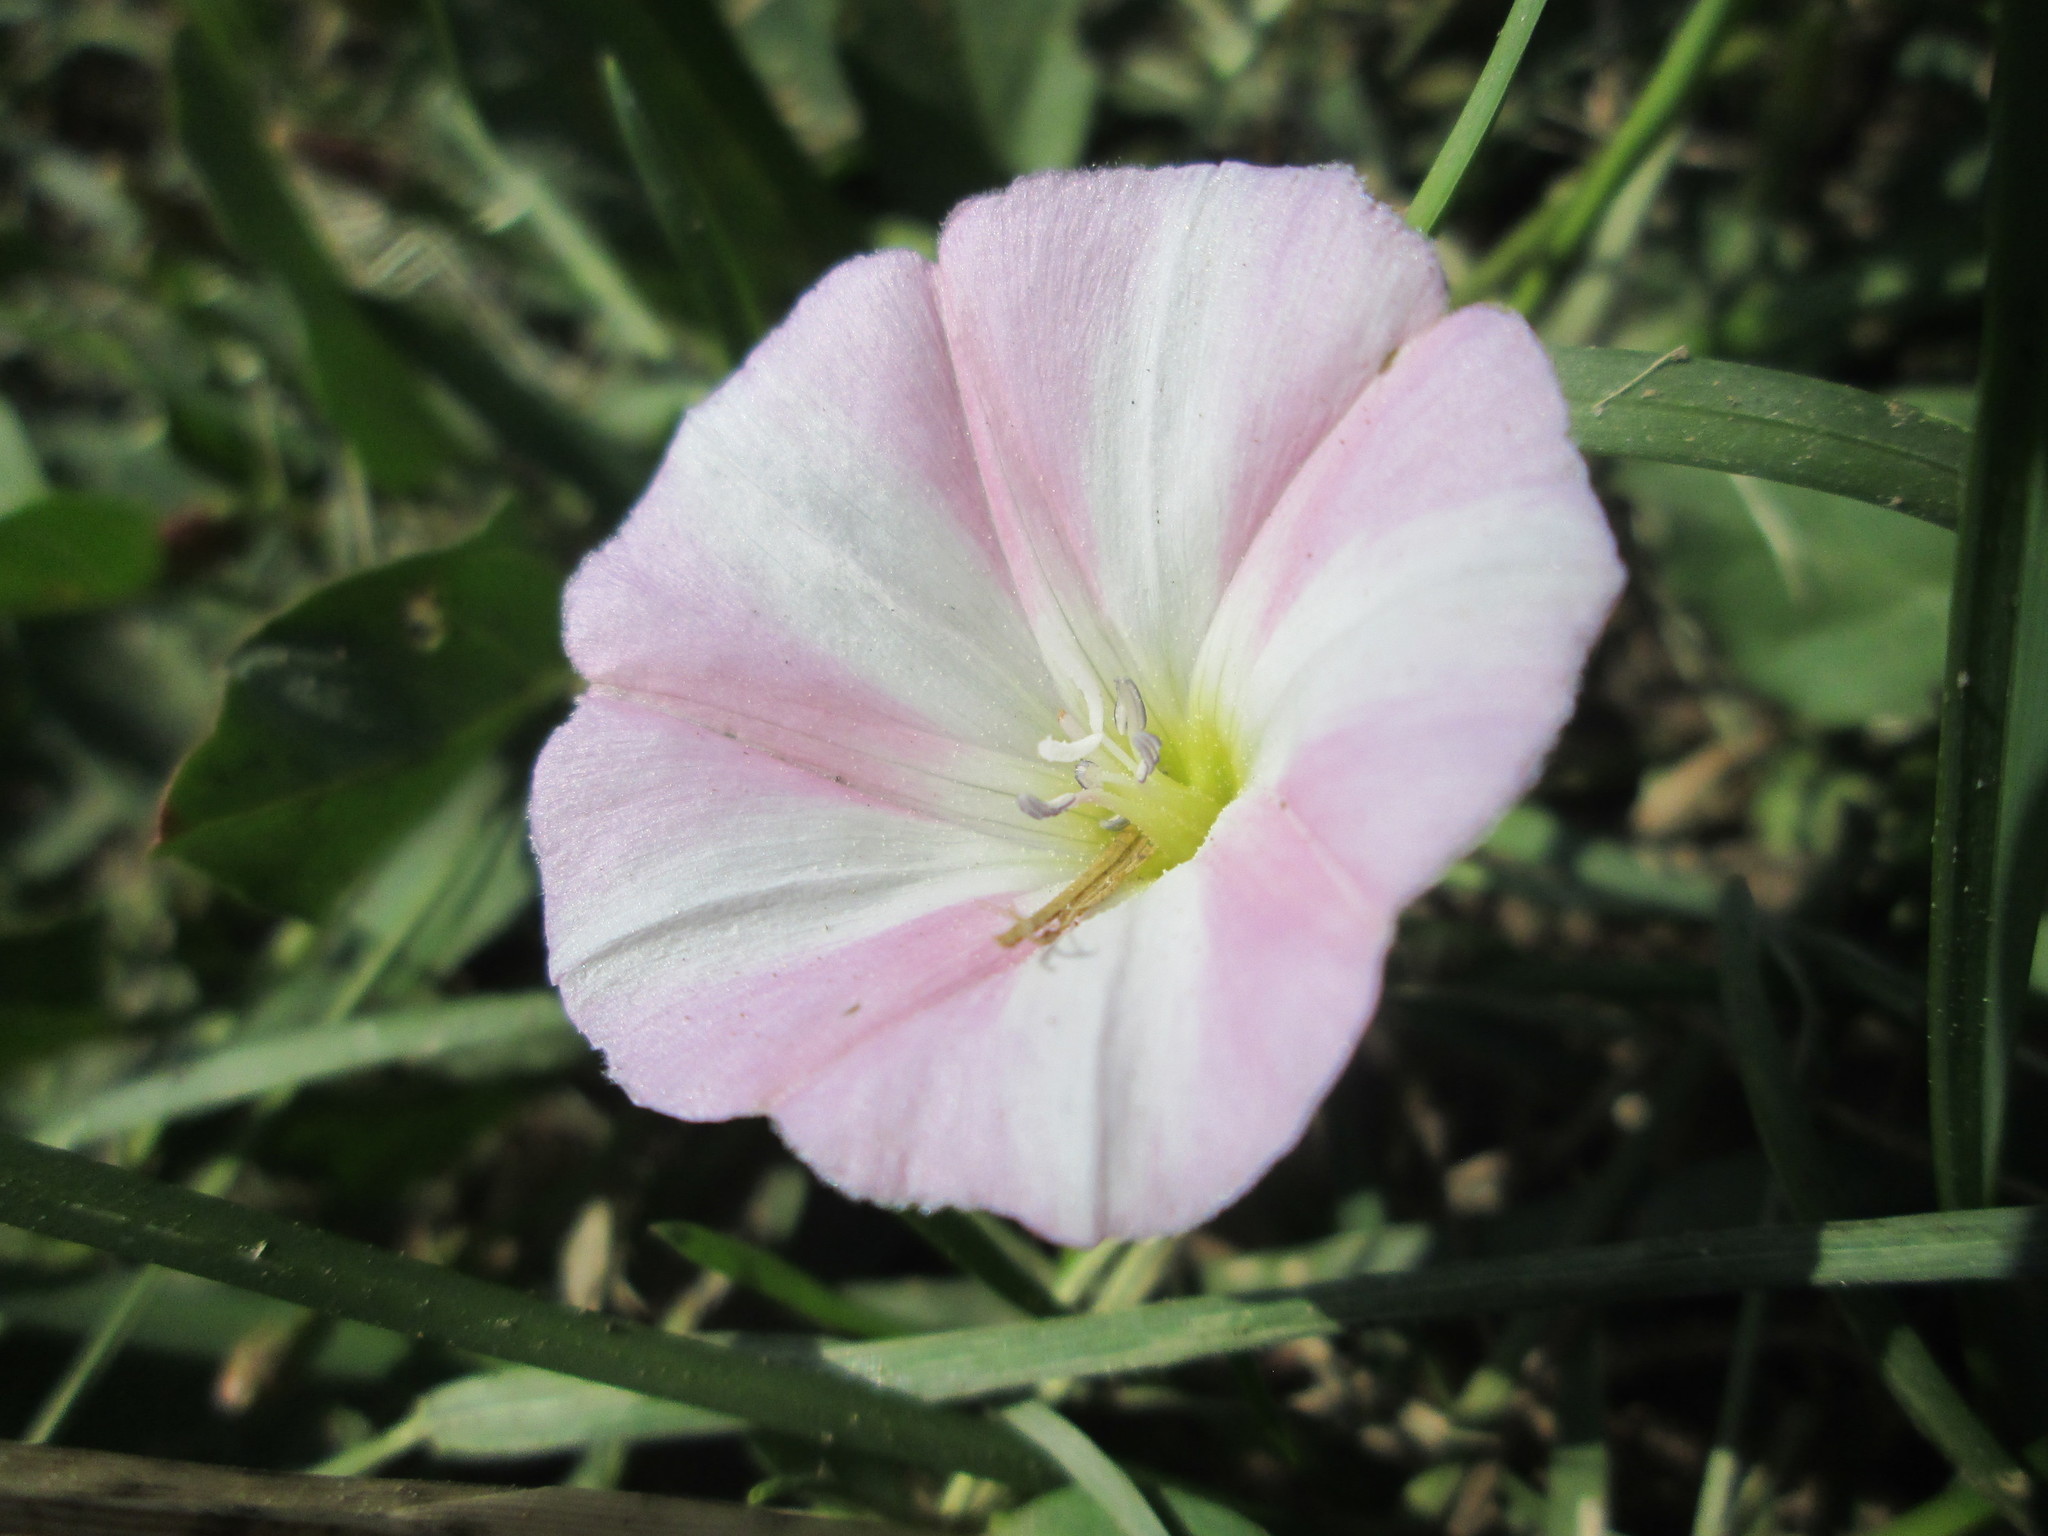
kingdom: Plantae
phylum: Tracheophyta
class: Magnoliopsida
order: Solanales
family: Convolvulaceae
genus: Convolvulus
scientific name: Convolvulus arvensis
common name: Field bindweed
